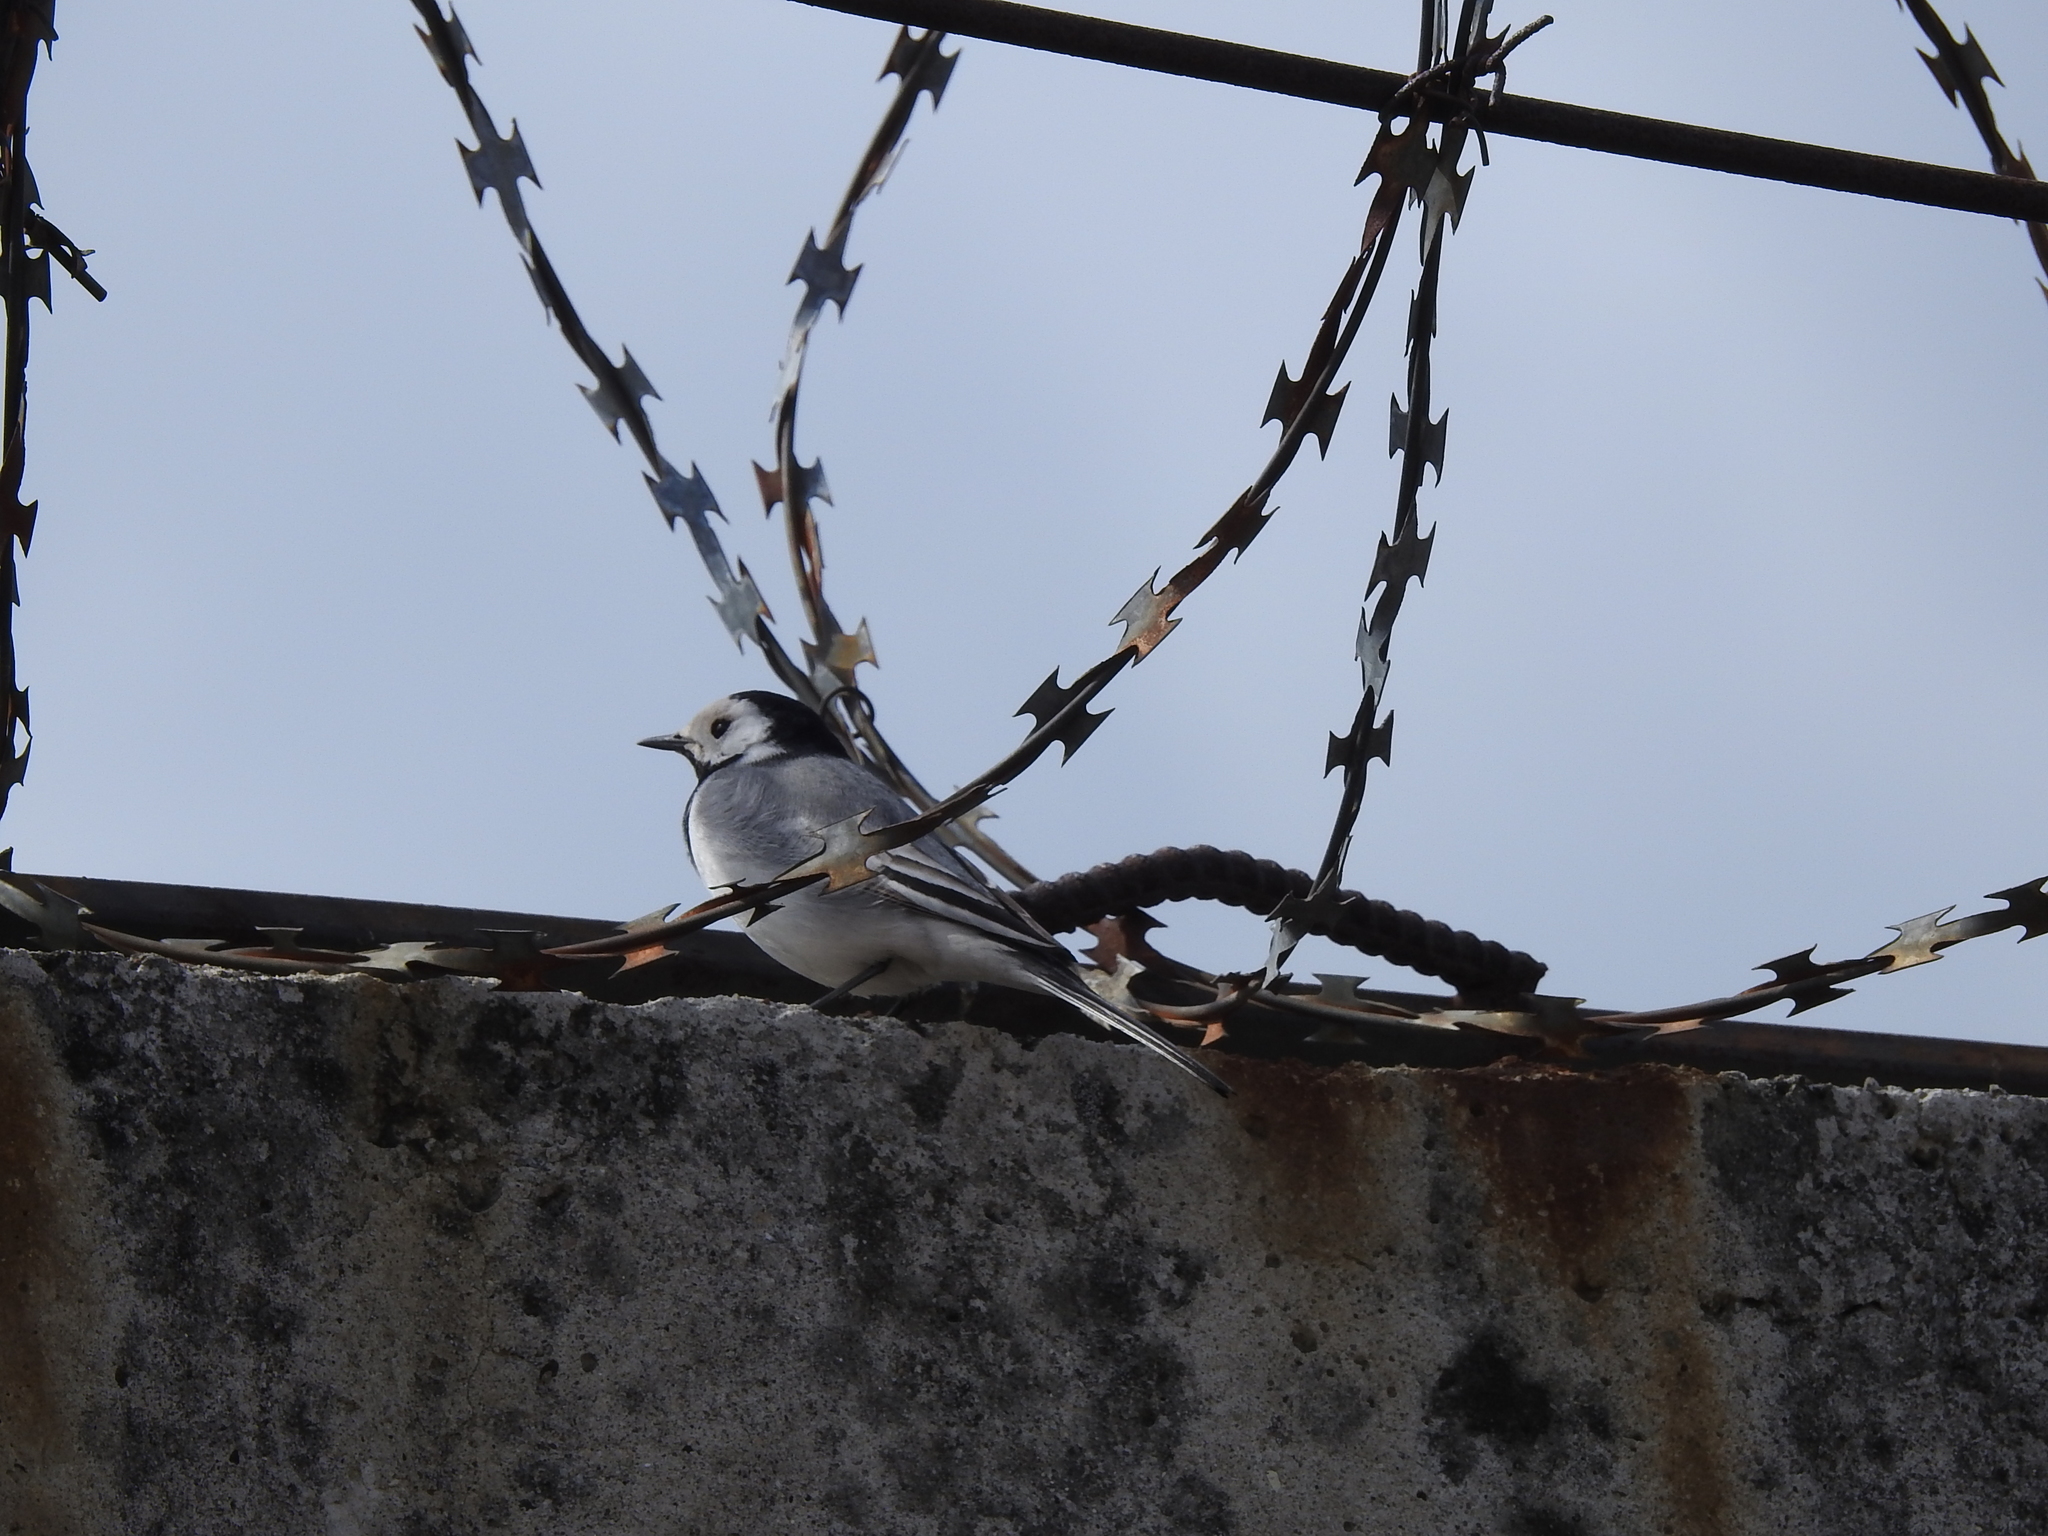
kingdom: Animalia
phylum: Chordata
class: Aves
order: Passeriformes
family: Motacillidae
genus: Motacilla
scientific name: Motacilla alba
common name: White wagtail
